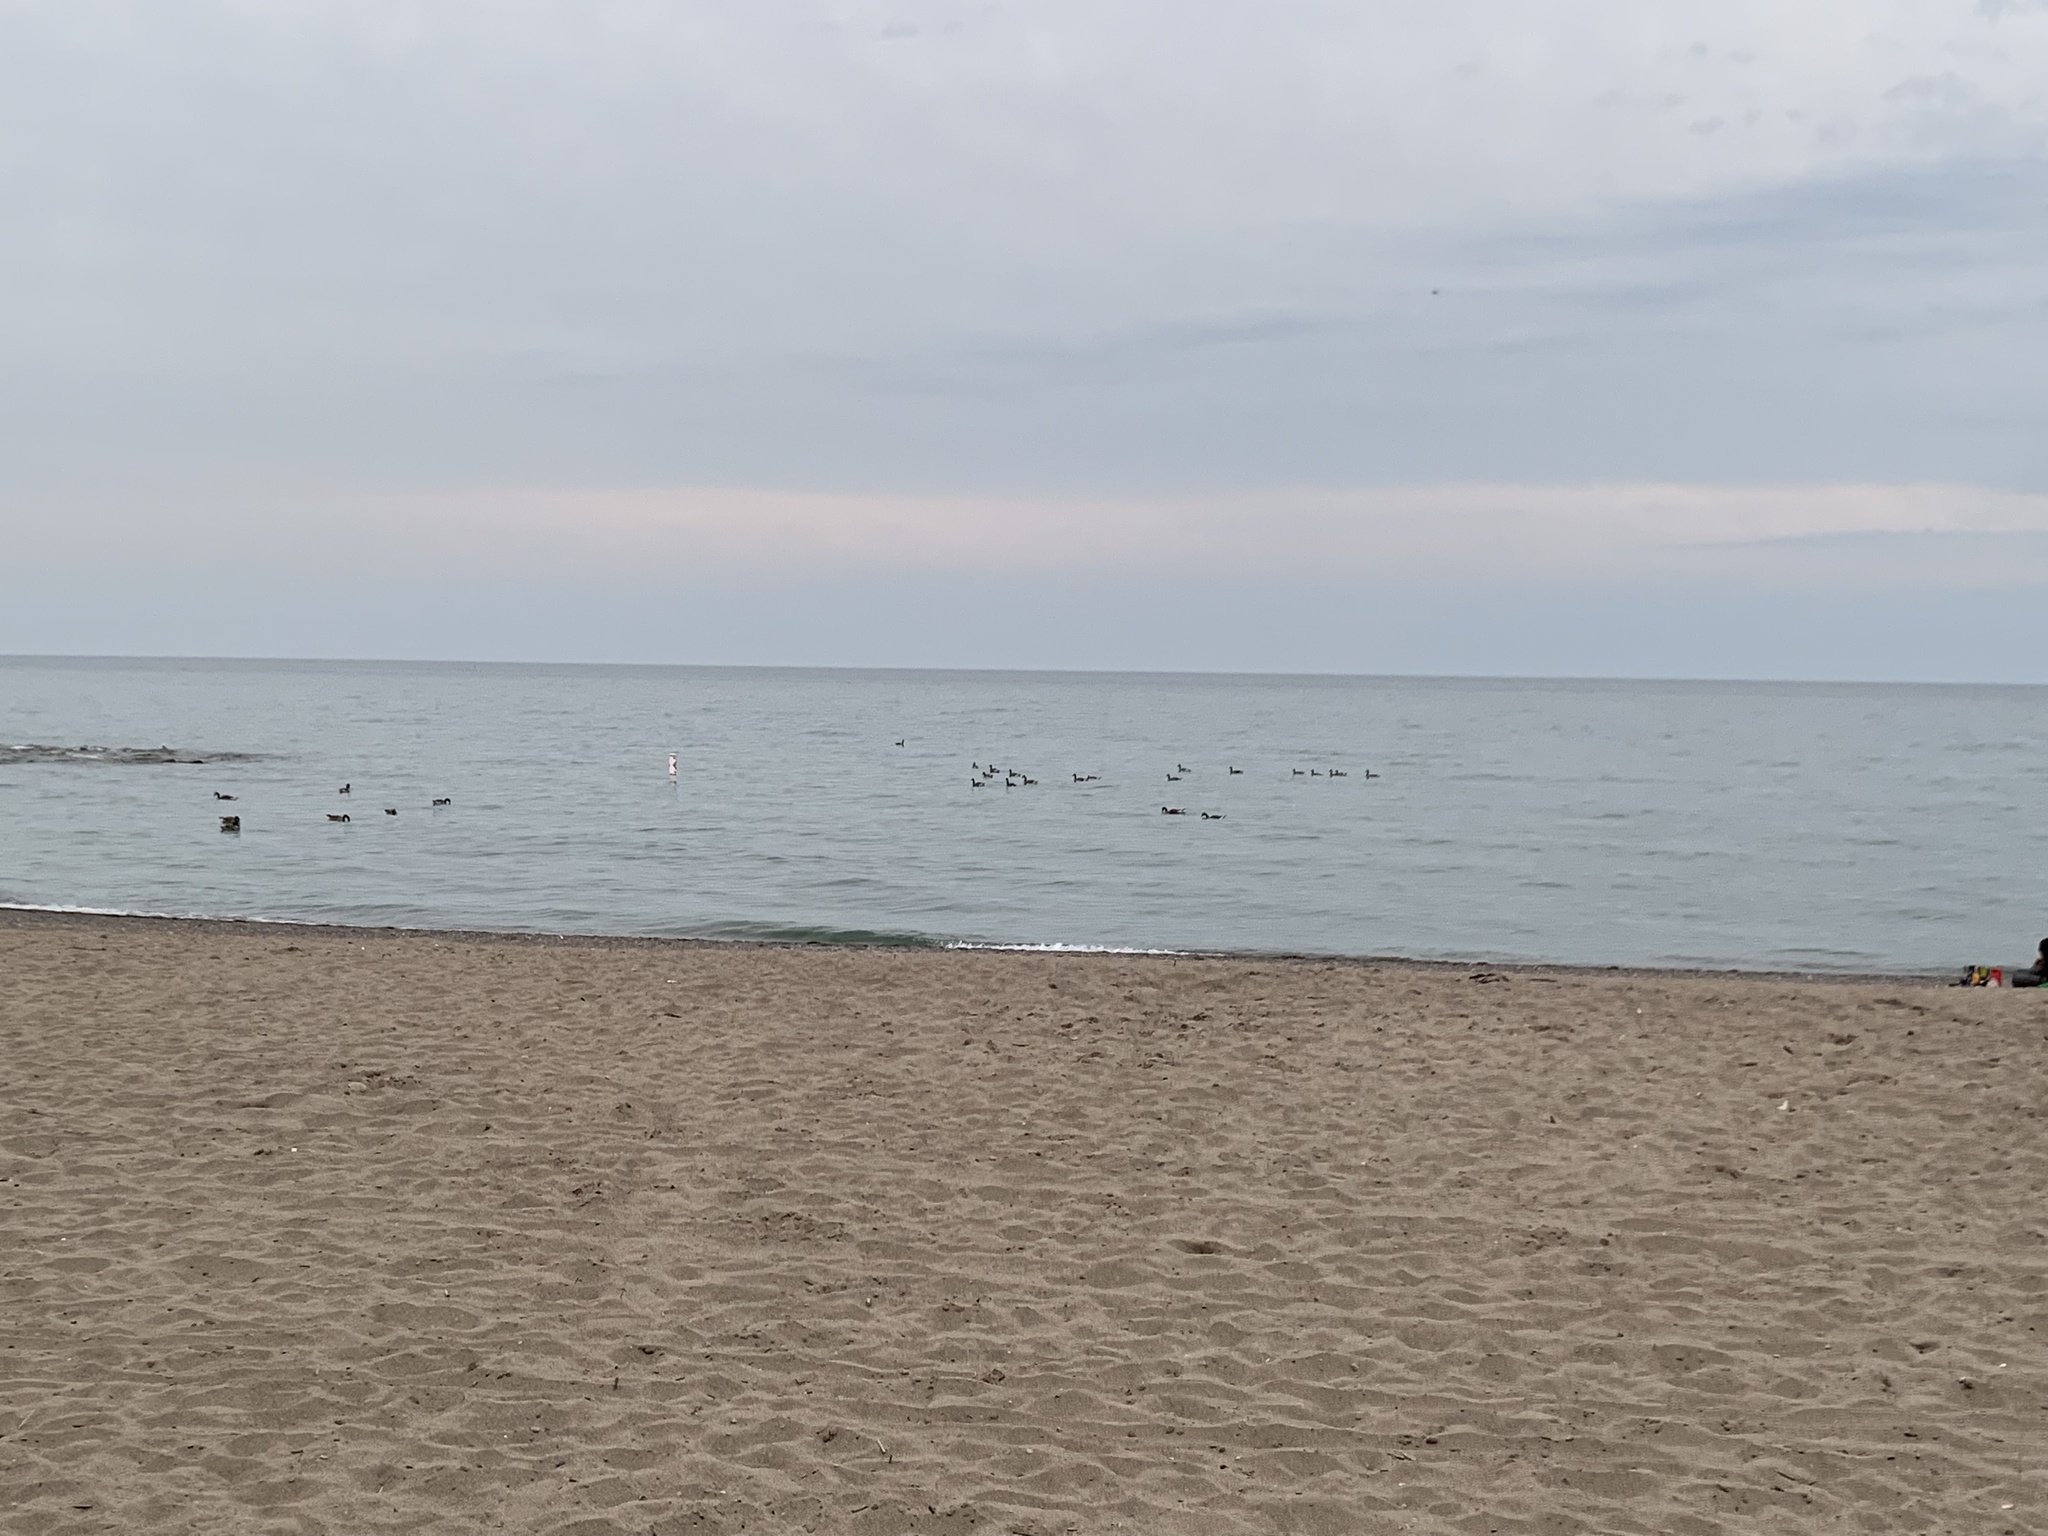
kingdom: Animalia
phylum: Chordata
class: Aves
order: Anseriformes
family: Anatidae
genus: Branta
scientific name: Branta canadensis
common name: Canada goose
